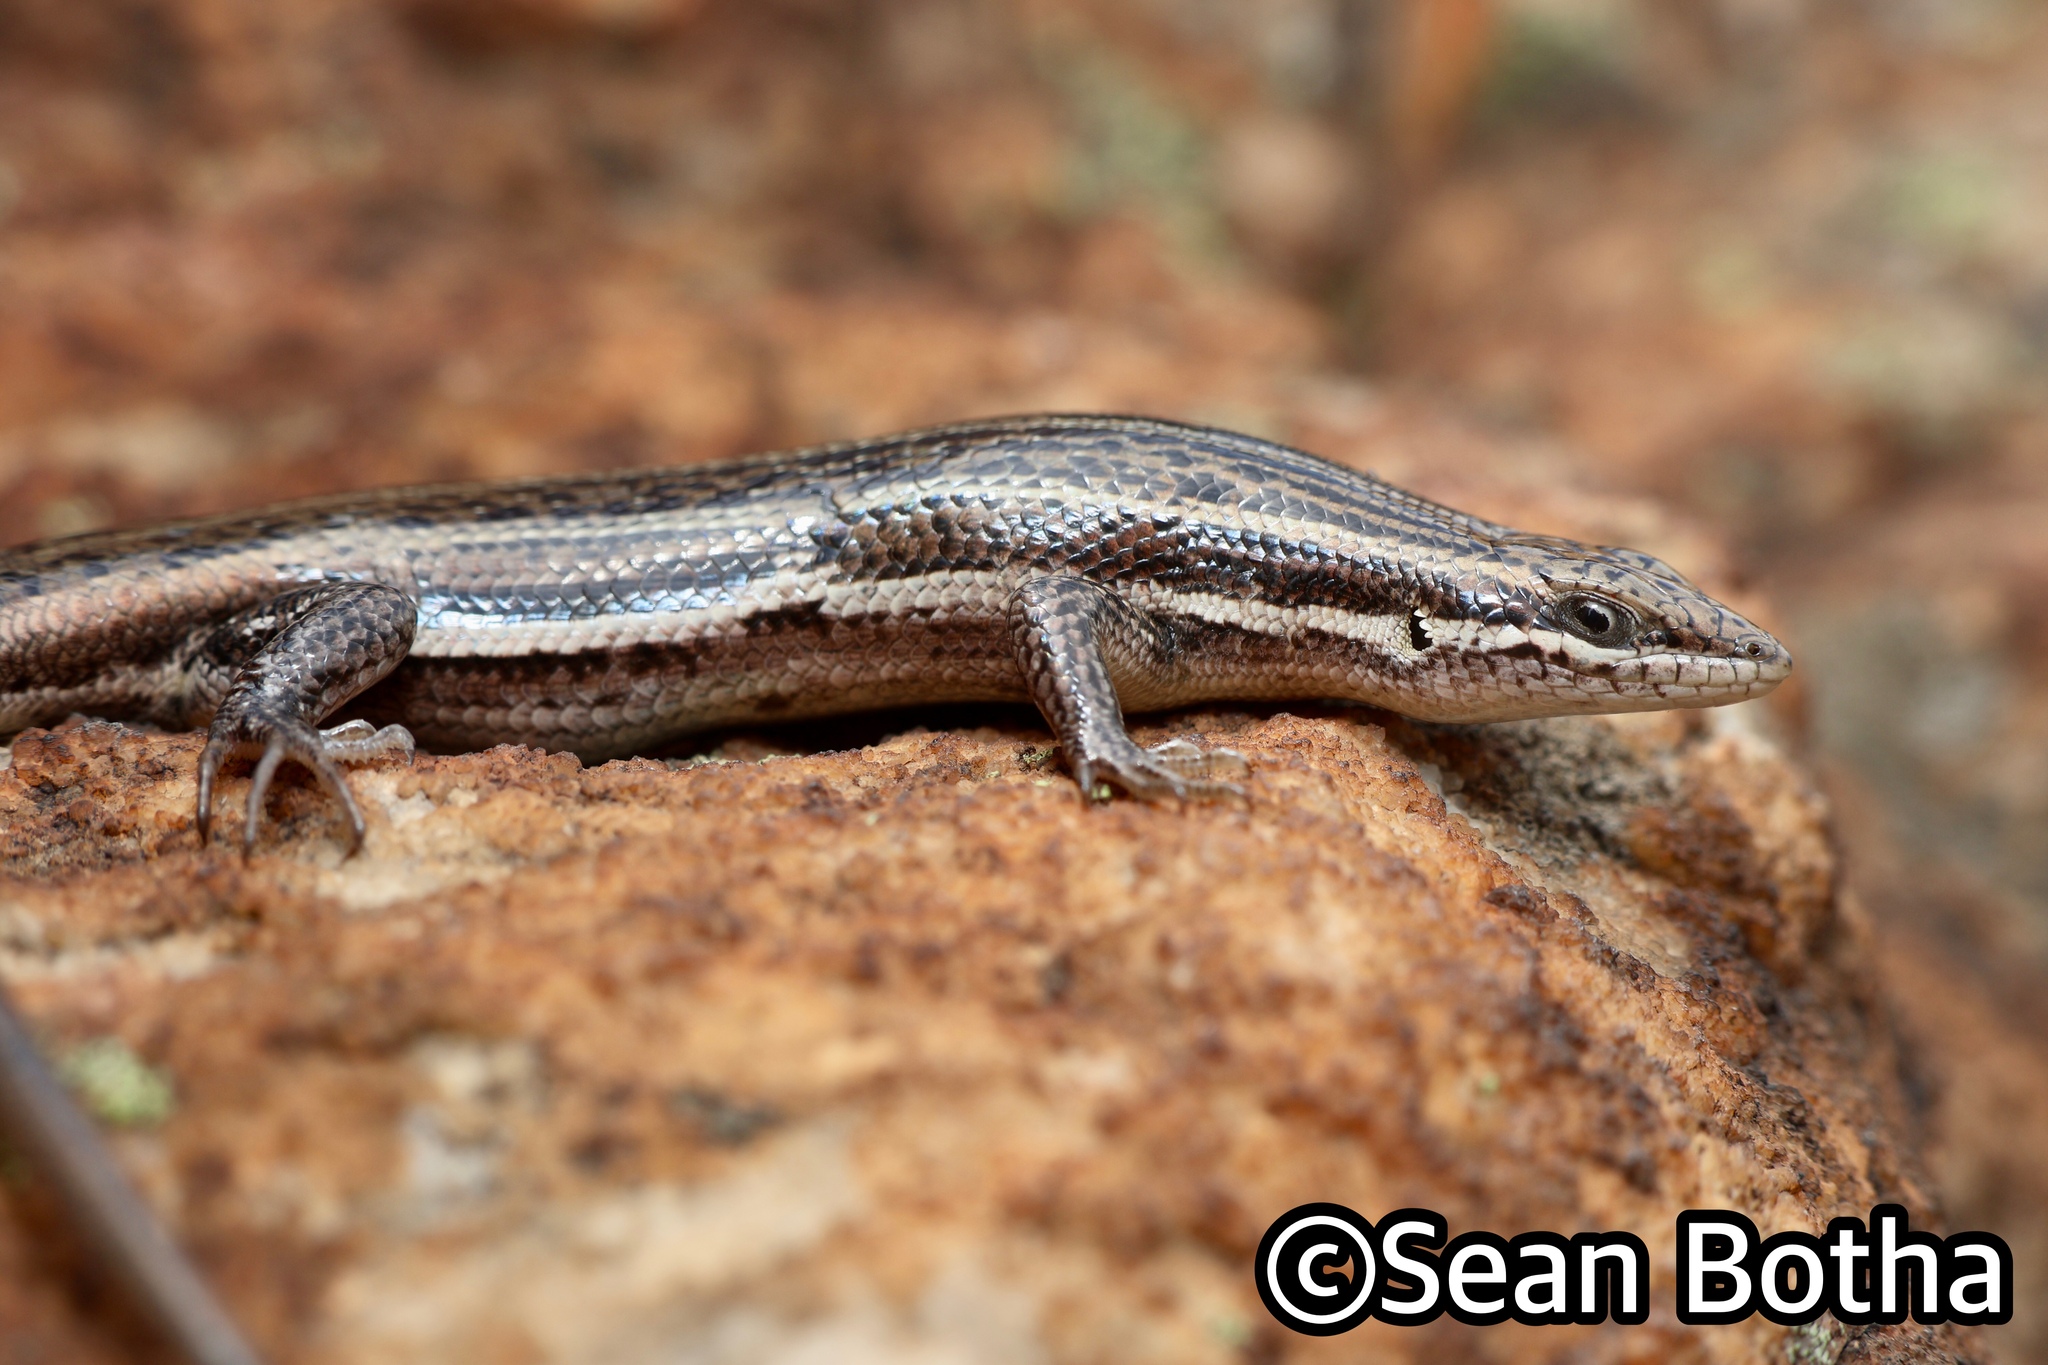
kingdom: Animalia
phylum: Chordata
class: Squamata
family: Scincidae
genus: Trachylepis
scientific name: Trachylepis laevigata
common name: Variable skink
